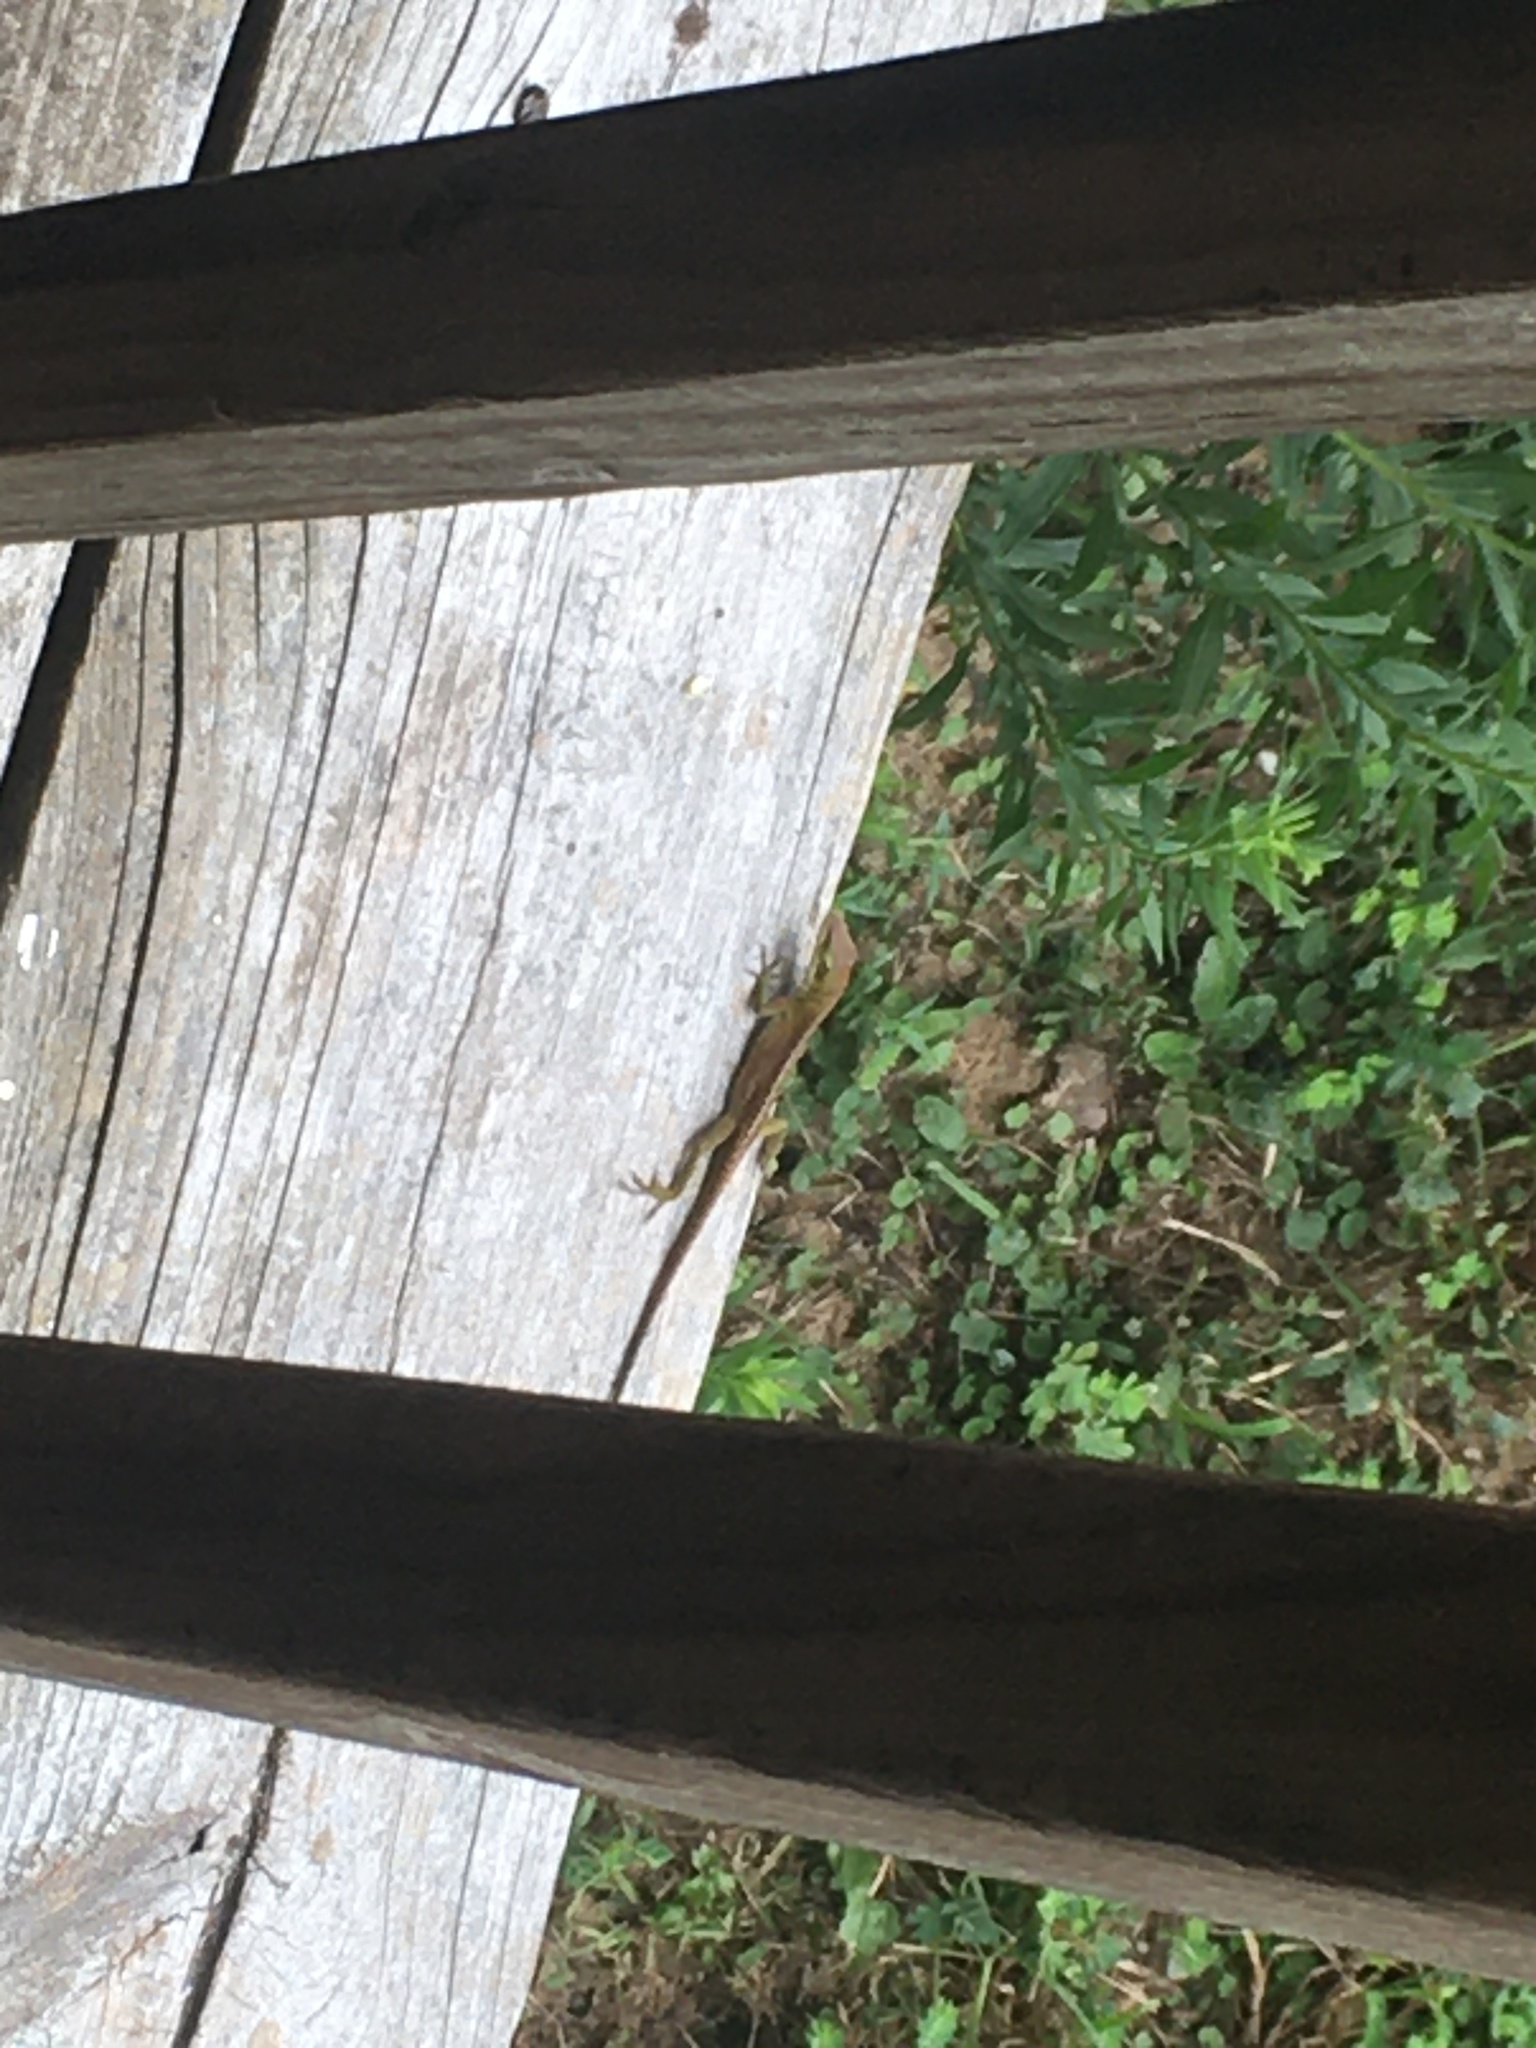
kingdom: Animalia
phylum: Chordata
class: Squamata
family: Dactyloidae
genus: Anolis
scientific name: Anolis carolinensis
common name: Green anole
